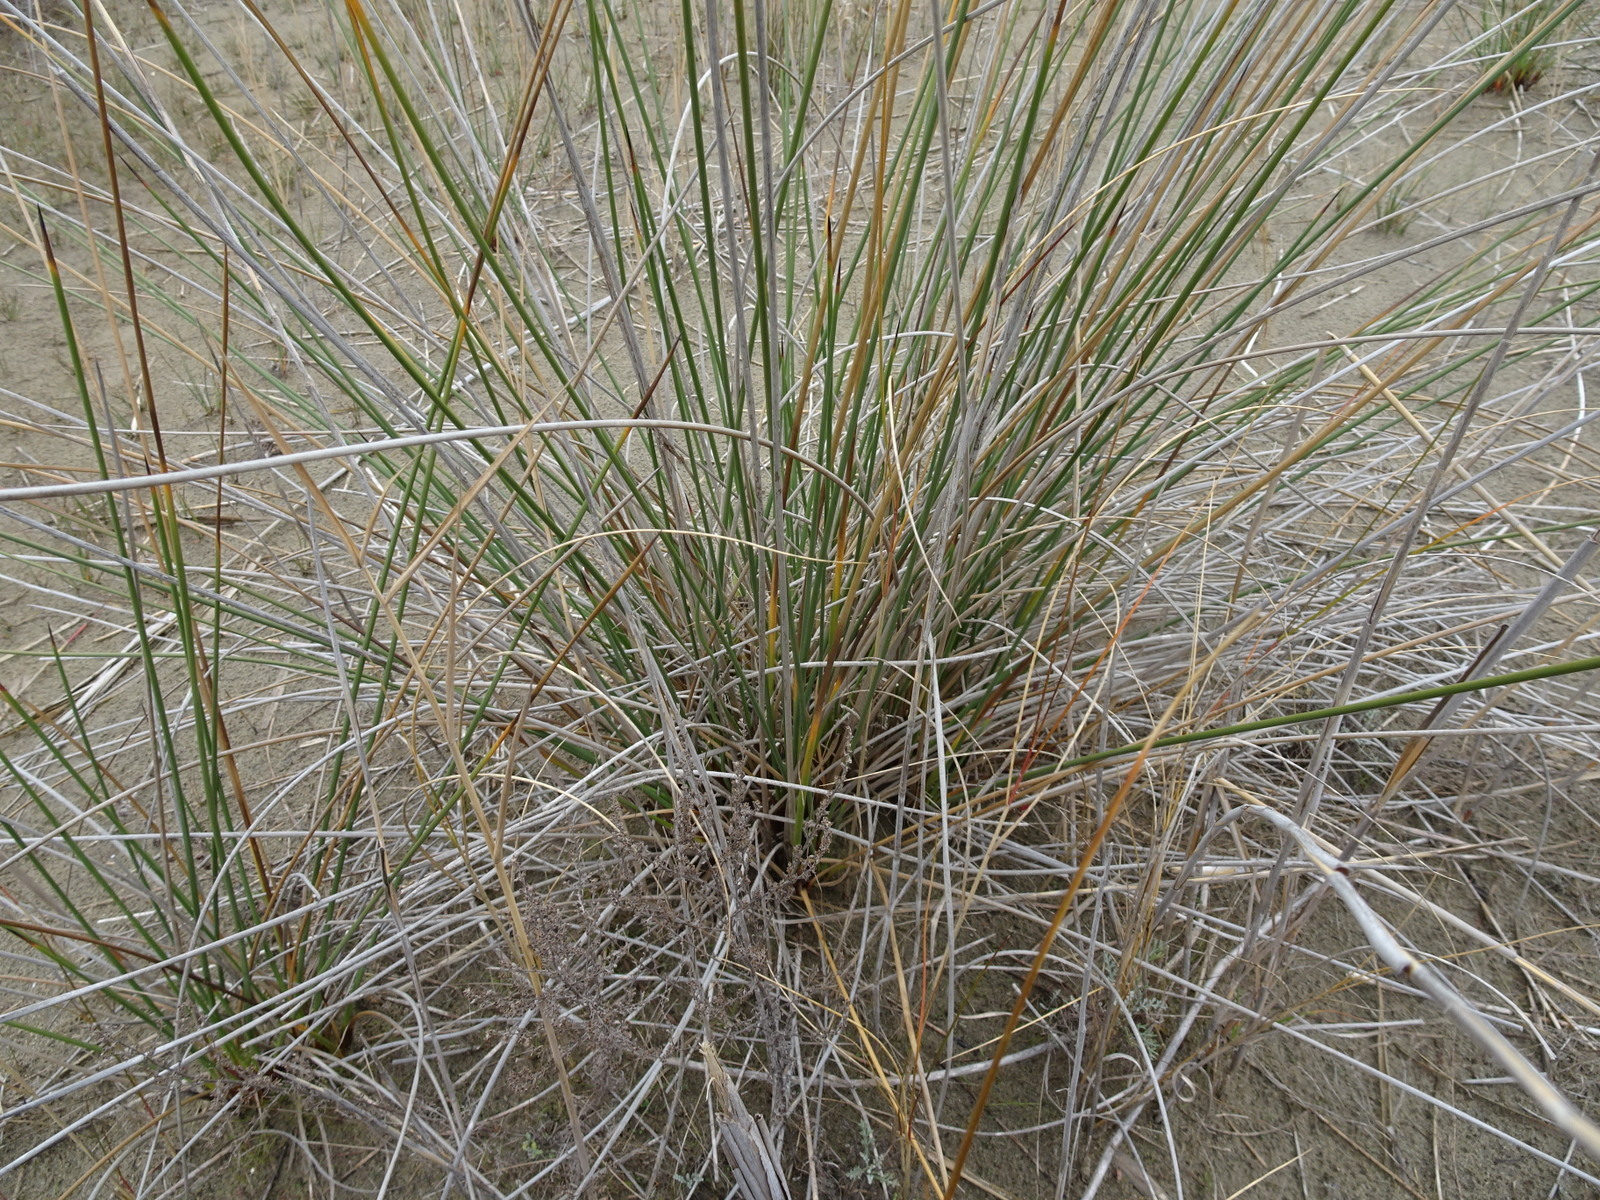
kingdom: Plantae
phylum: Tracheophyta
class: Liliopsida
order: Poales
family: Juncaceae
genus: Juncus
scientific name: Juncus acutus
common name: Sharp rush
